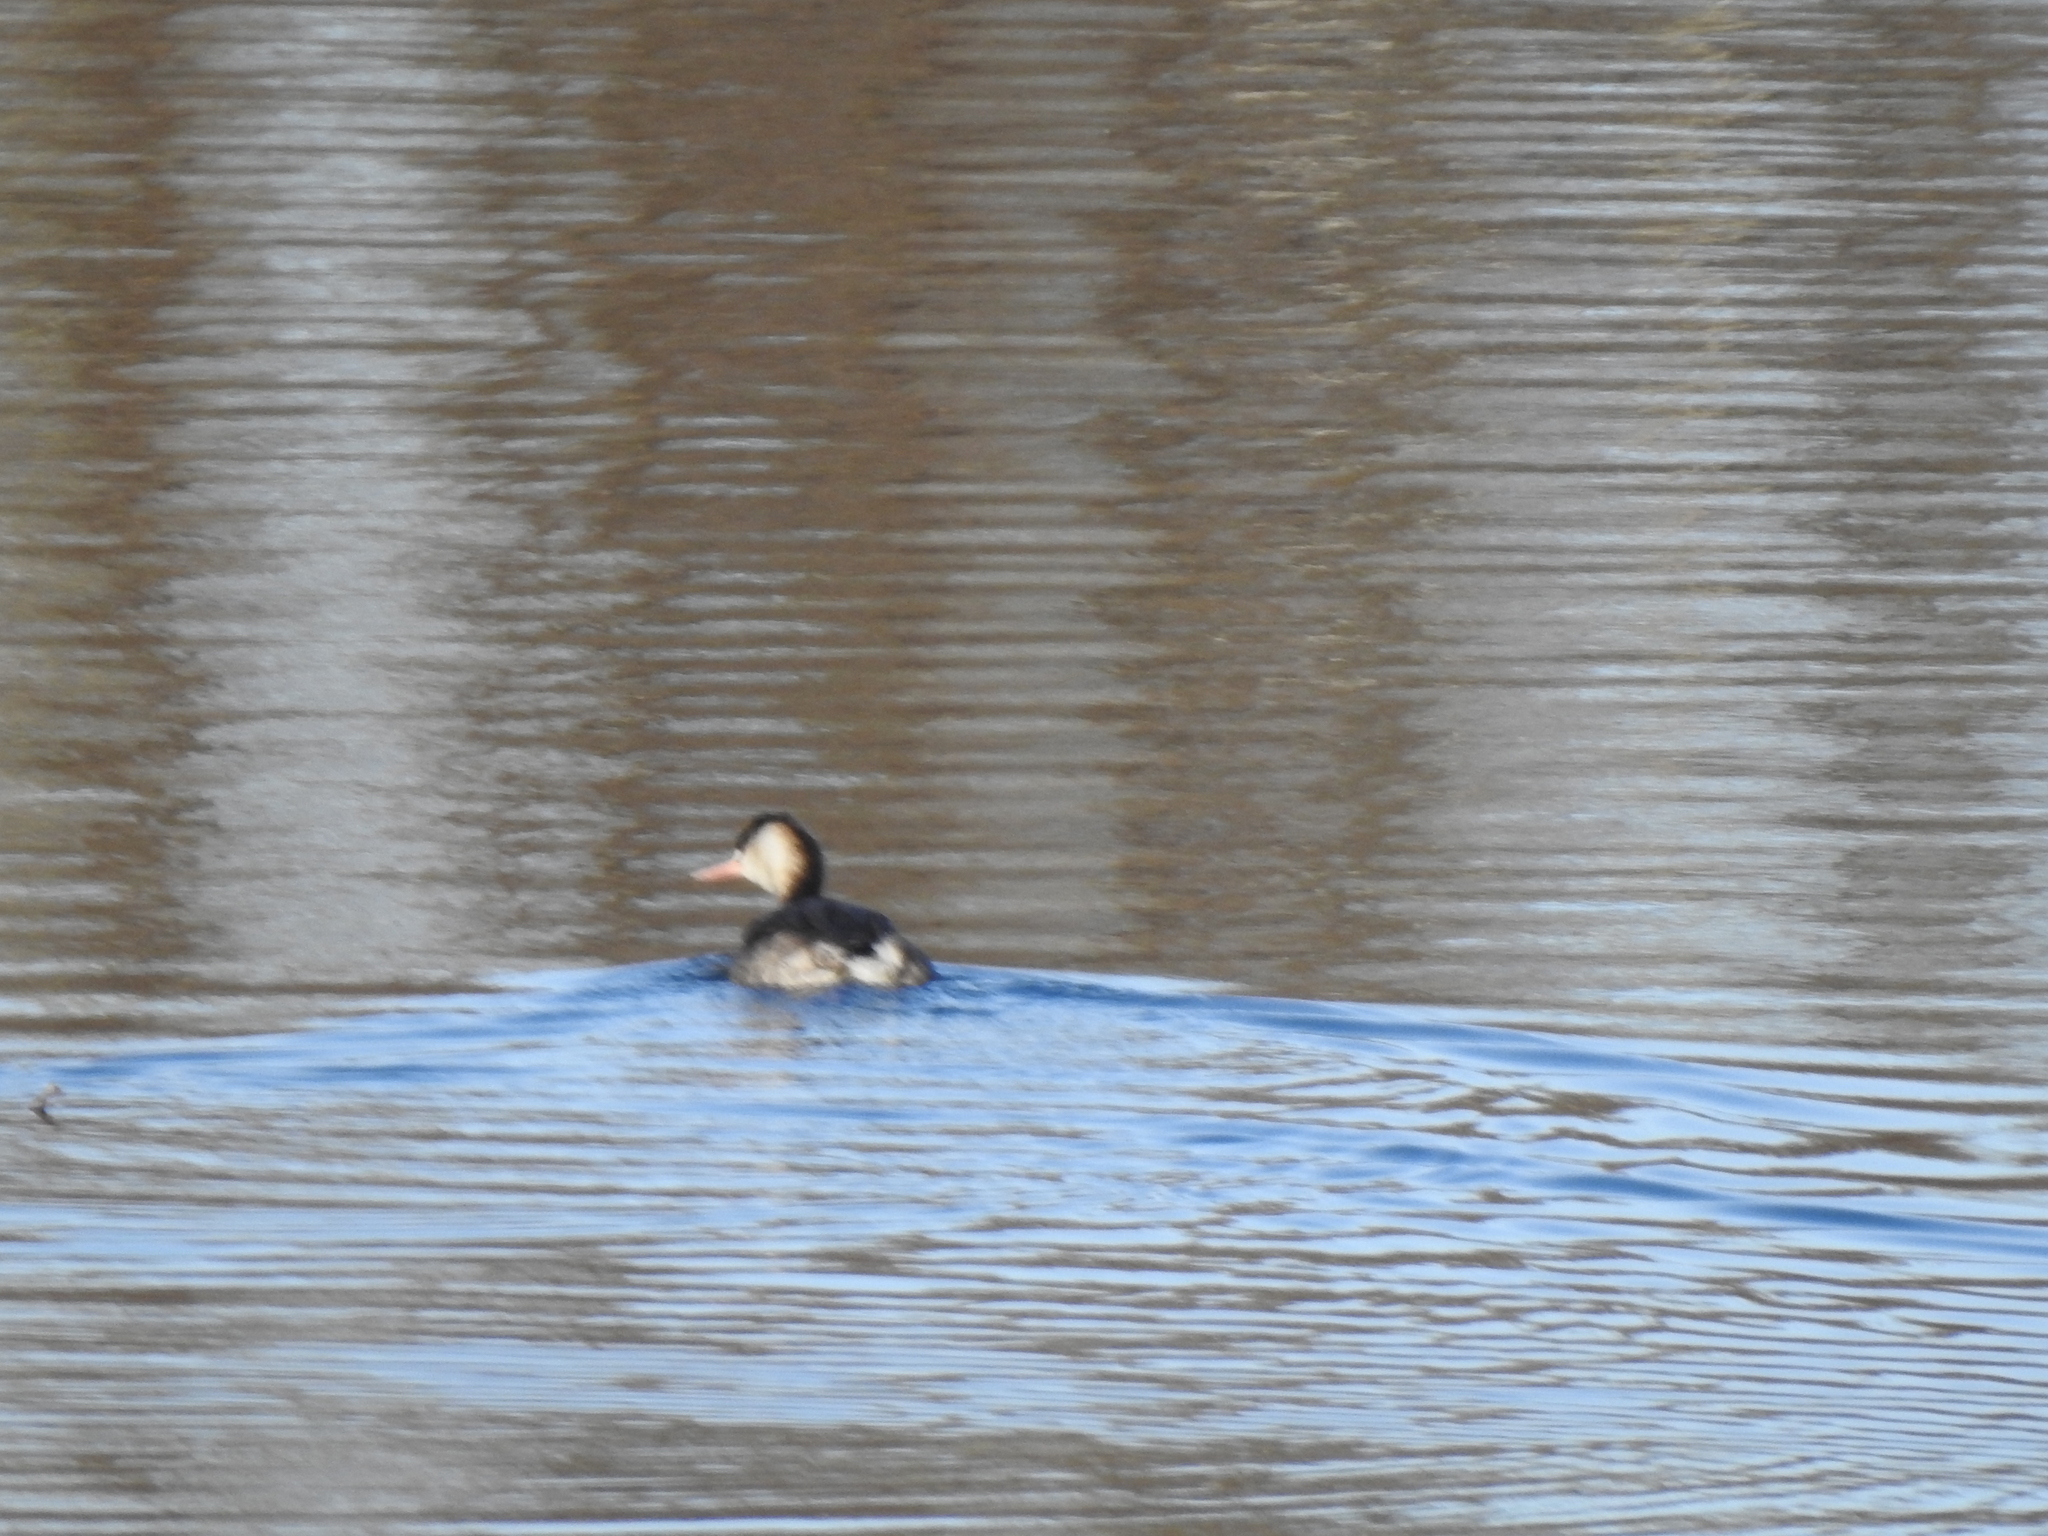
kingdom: Animalia
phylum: Chordata
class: Aves
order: Podicipediformes
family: Podicipedidae
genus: Podiceps
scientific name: Podiceps cristatus
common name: Great crested grebe
